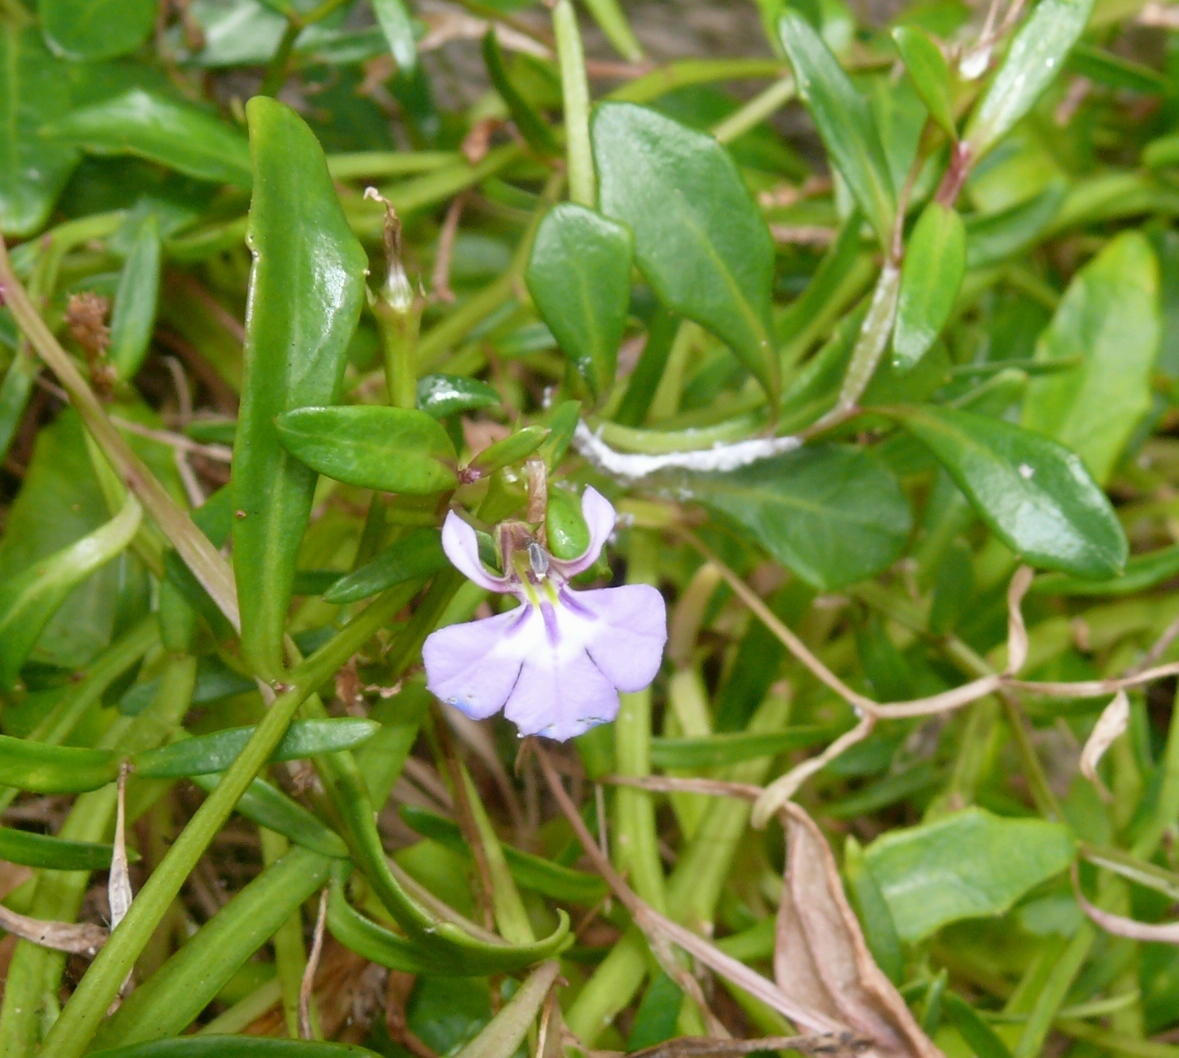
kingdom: Plantae
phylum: Tracheophyta
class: Magnoliopsida
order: Asterales
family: Campanulaceae
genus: Lobelia
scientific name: Lobelia anceps
